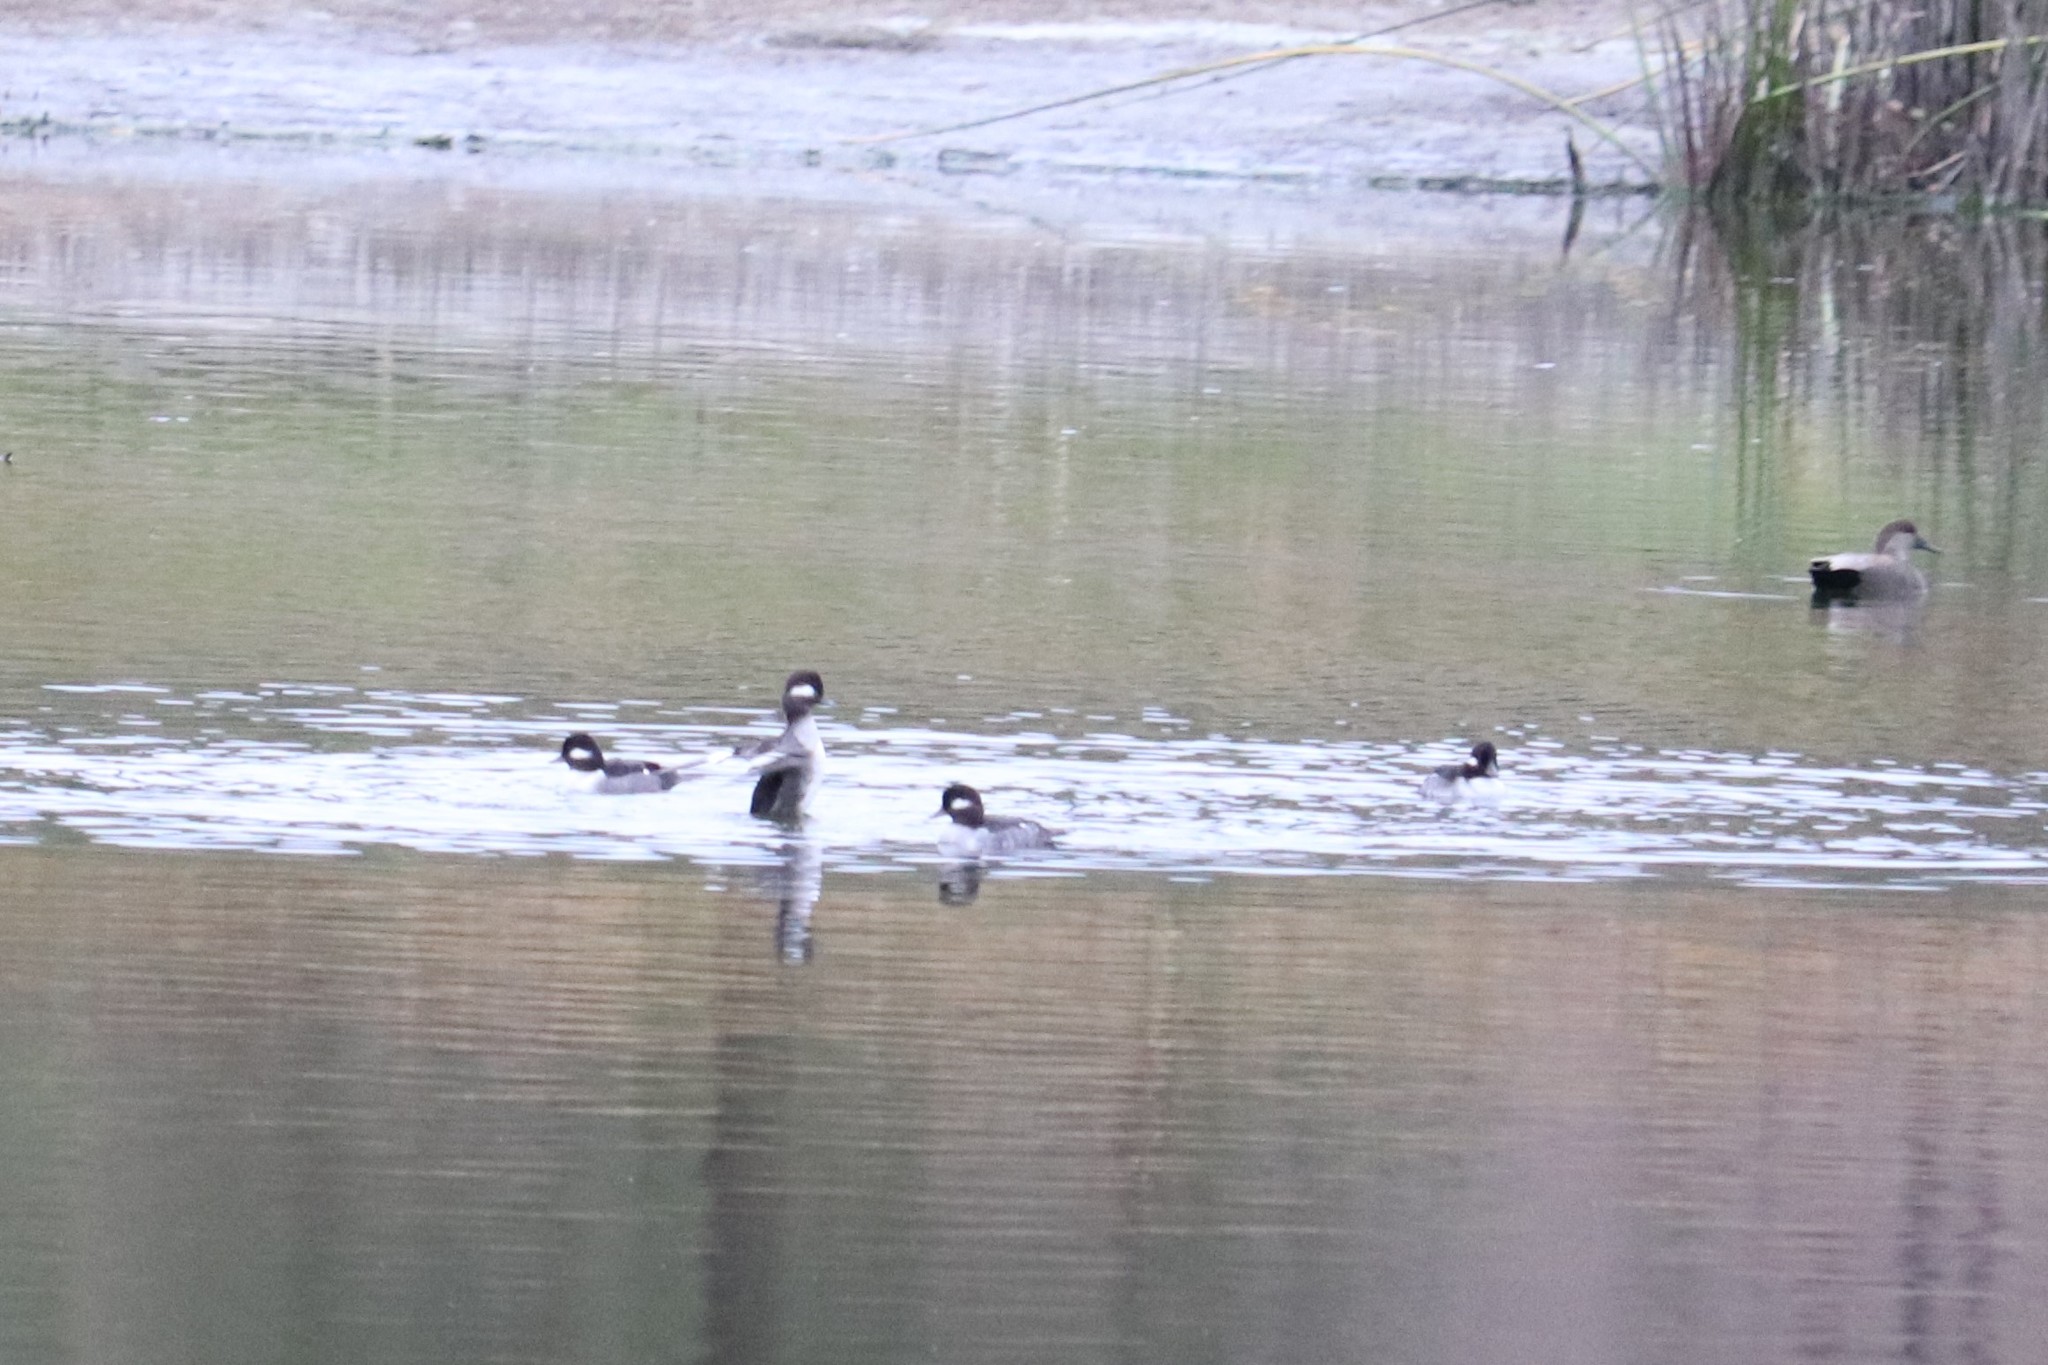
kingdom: Animalia
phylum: Chordata
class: Aves
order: Anseriformes
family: Anatidae
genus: Bucephala
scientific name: Bucephala albeola
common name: Bufflehead
